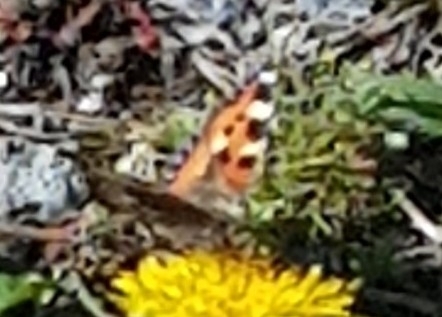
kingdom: Animalia
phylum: Arthropoda
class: Insecta
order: Lepidoptera
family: Nymphalidae
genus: Aglais
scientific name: Aglais urticae
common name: Small tortoiseshell
